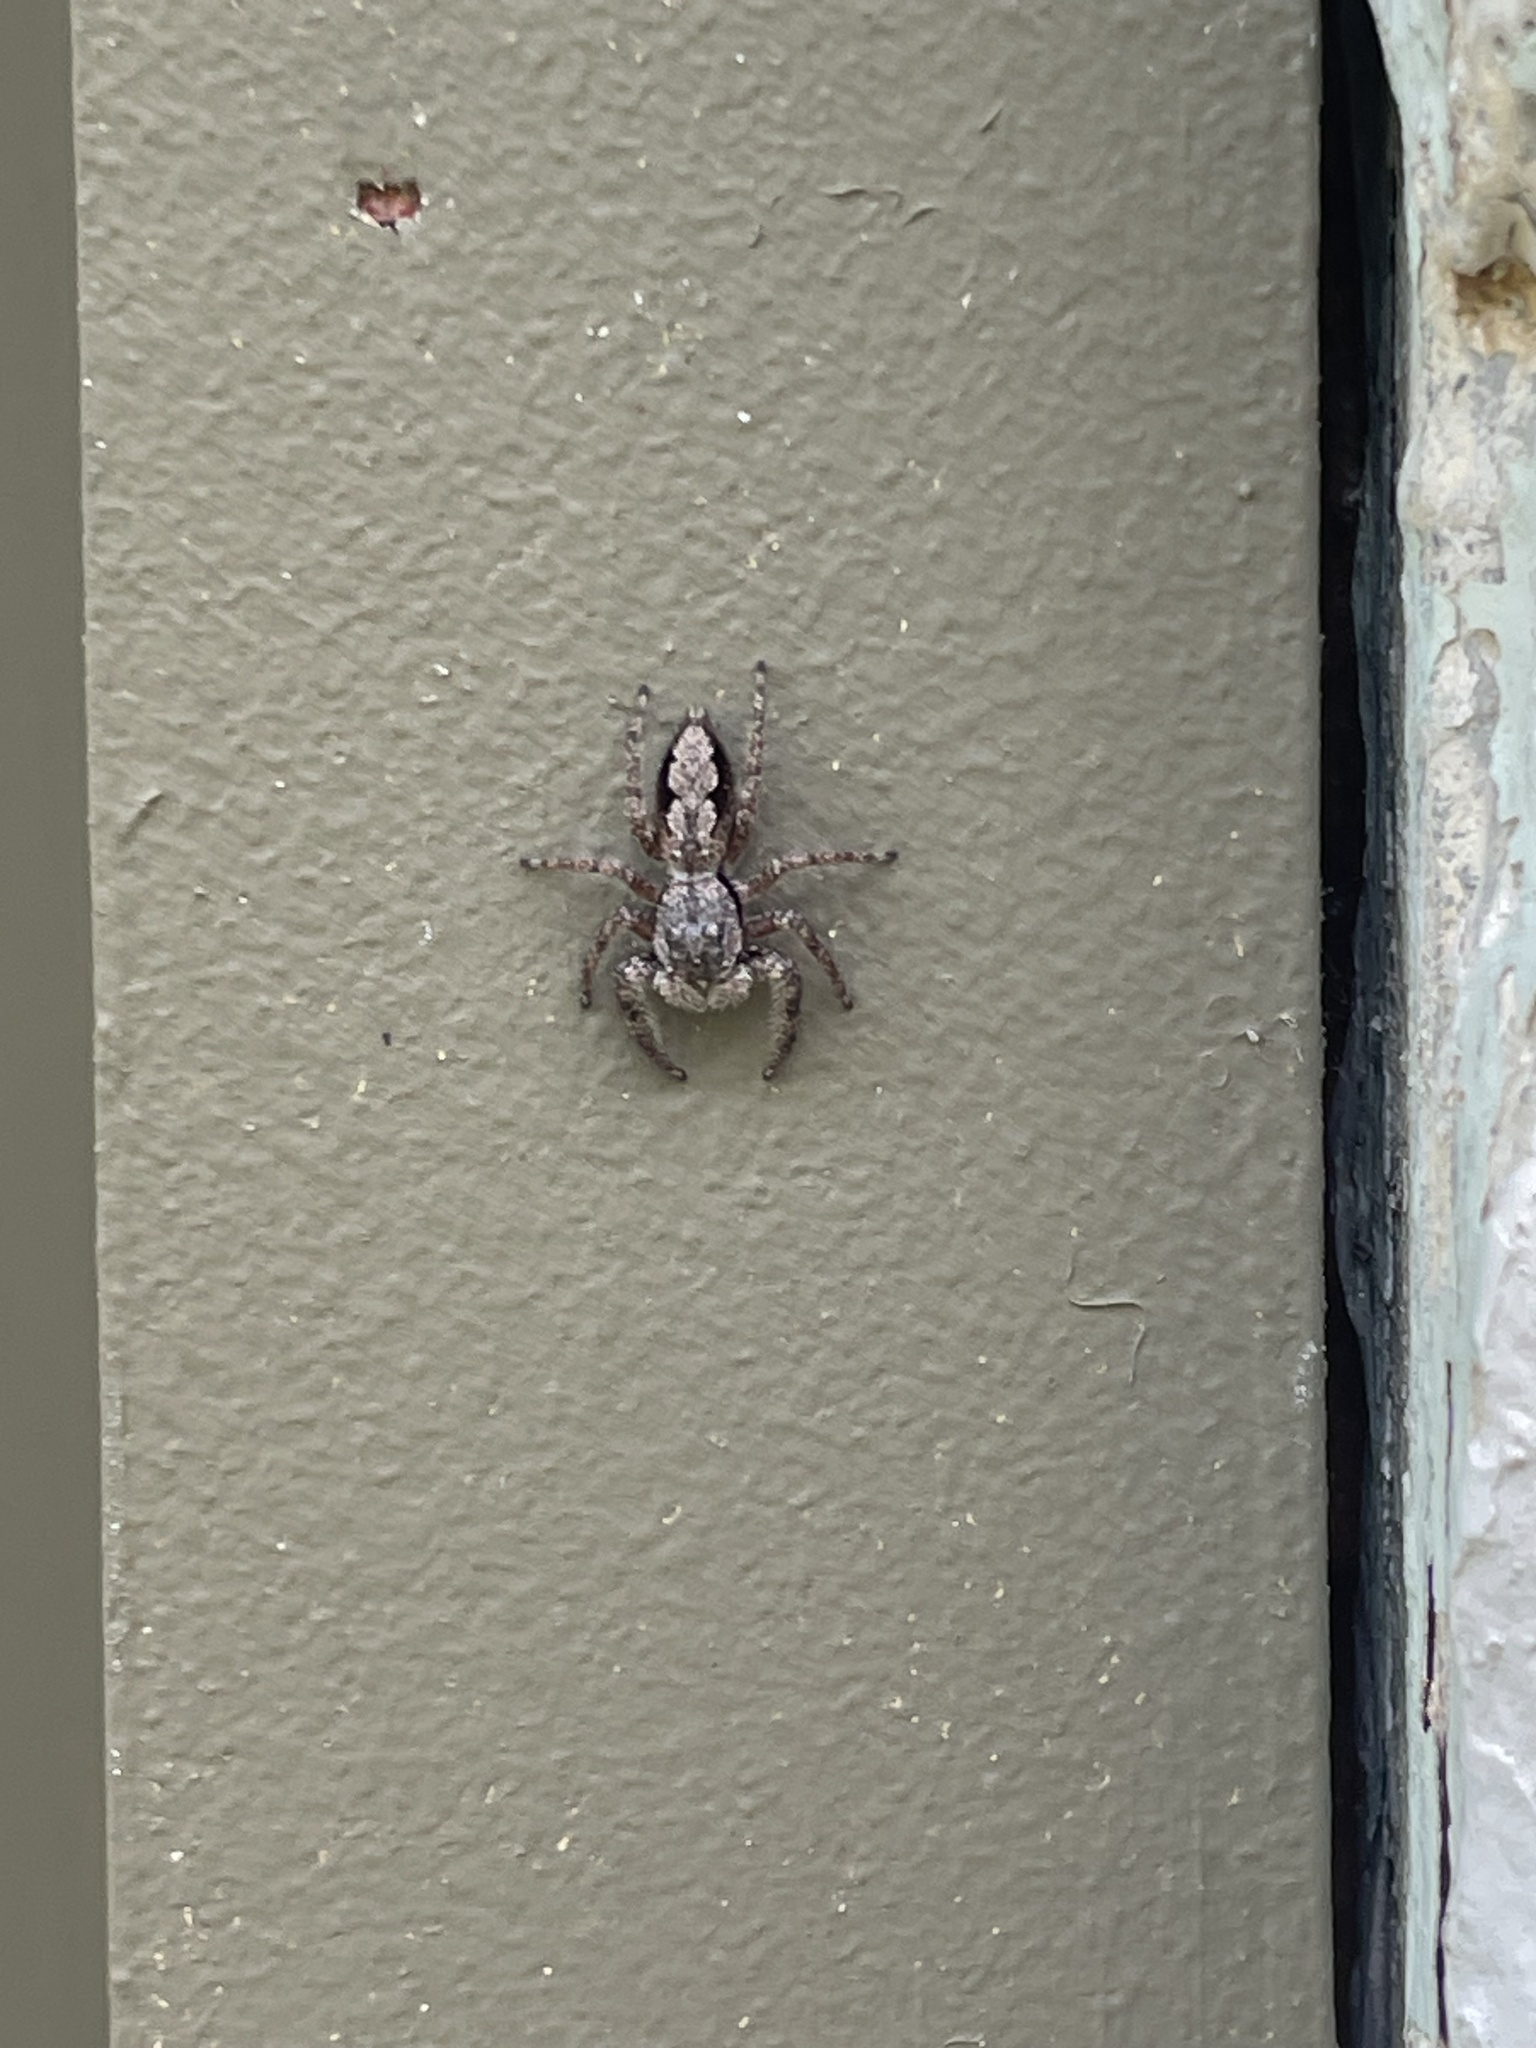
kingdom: Animalia
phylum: Arthropoda
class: Arachnida
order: Araneae
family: Salticidae
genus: Platycryptus
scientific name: Platycryptus undatus
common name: Tan jumping spider
